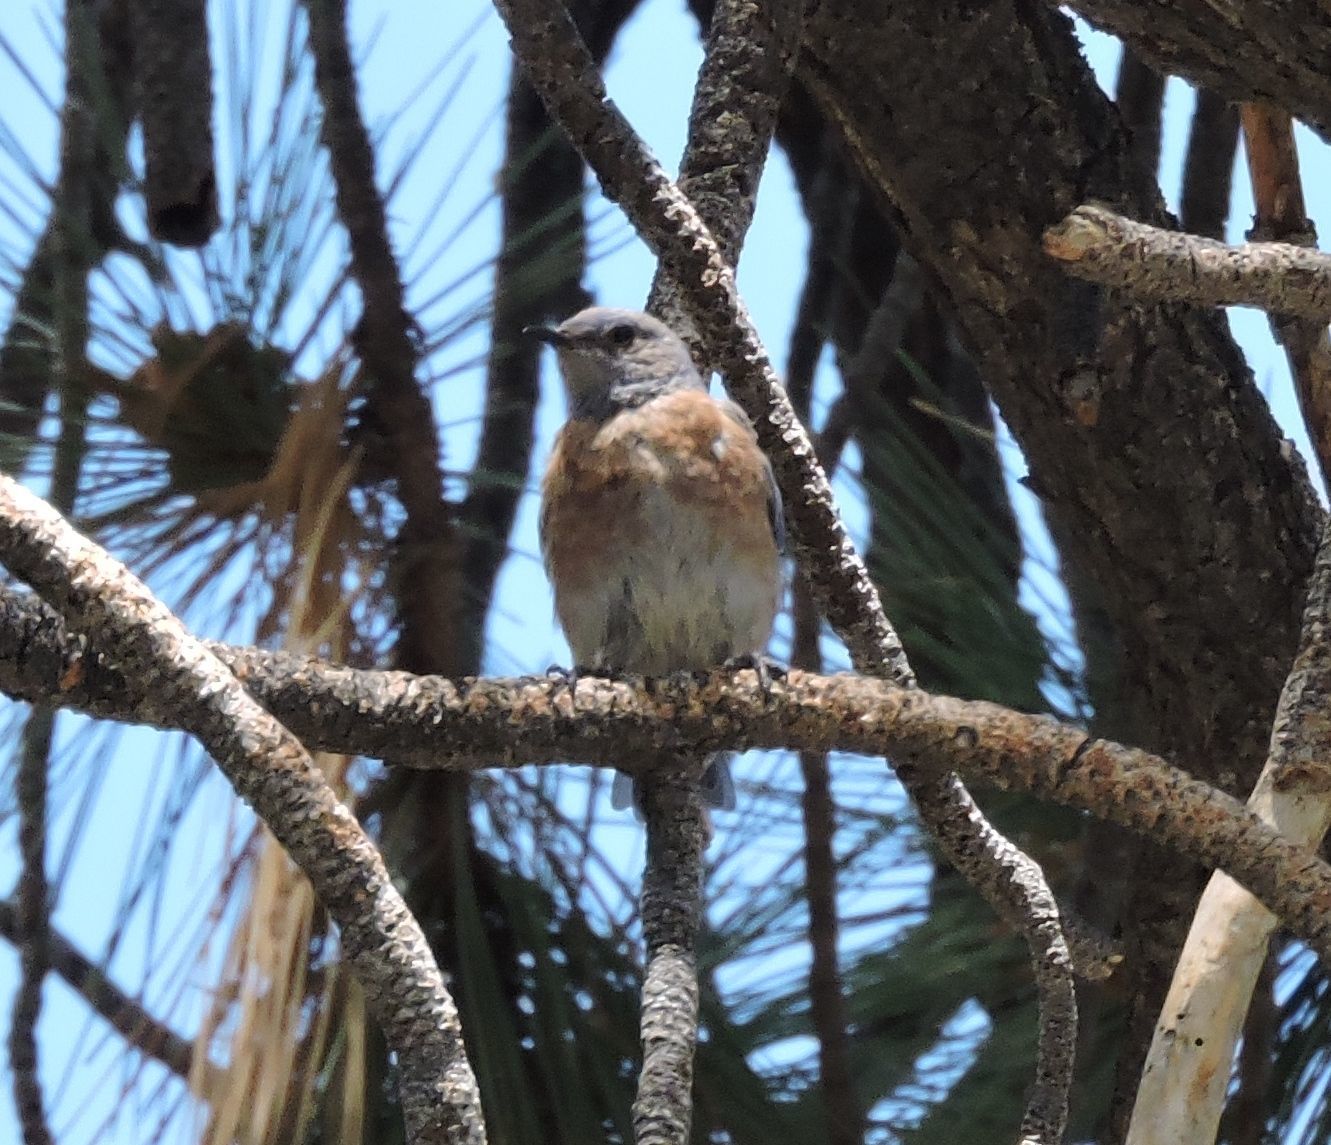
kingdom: Animalia
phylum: Chordata
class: Aves
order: Passeriformes
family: Turdidae
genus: Sialia
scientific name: Sialia mexicana
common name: Western bluebird
